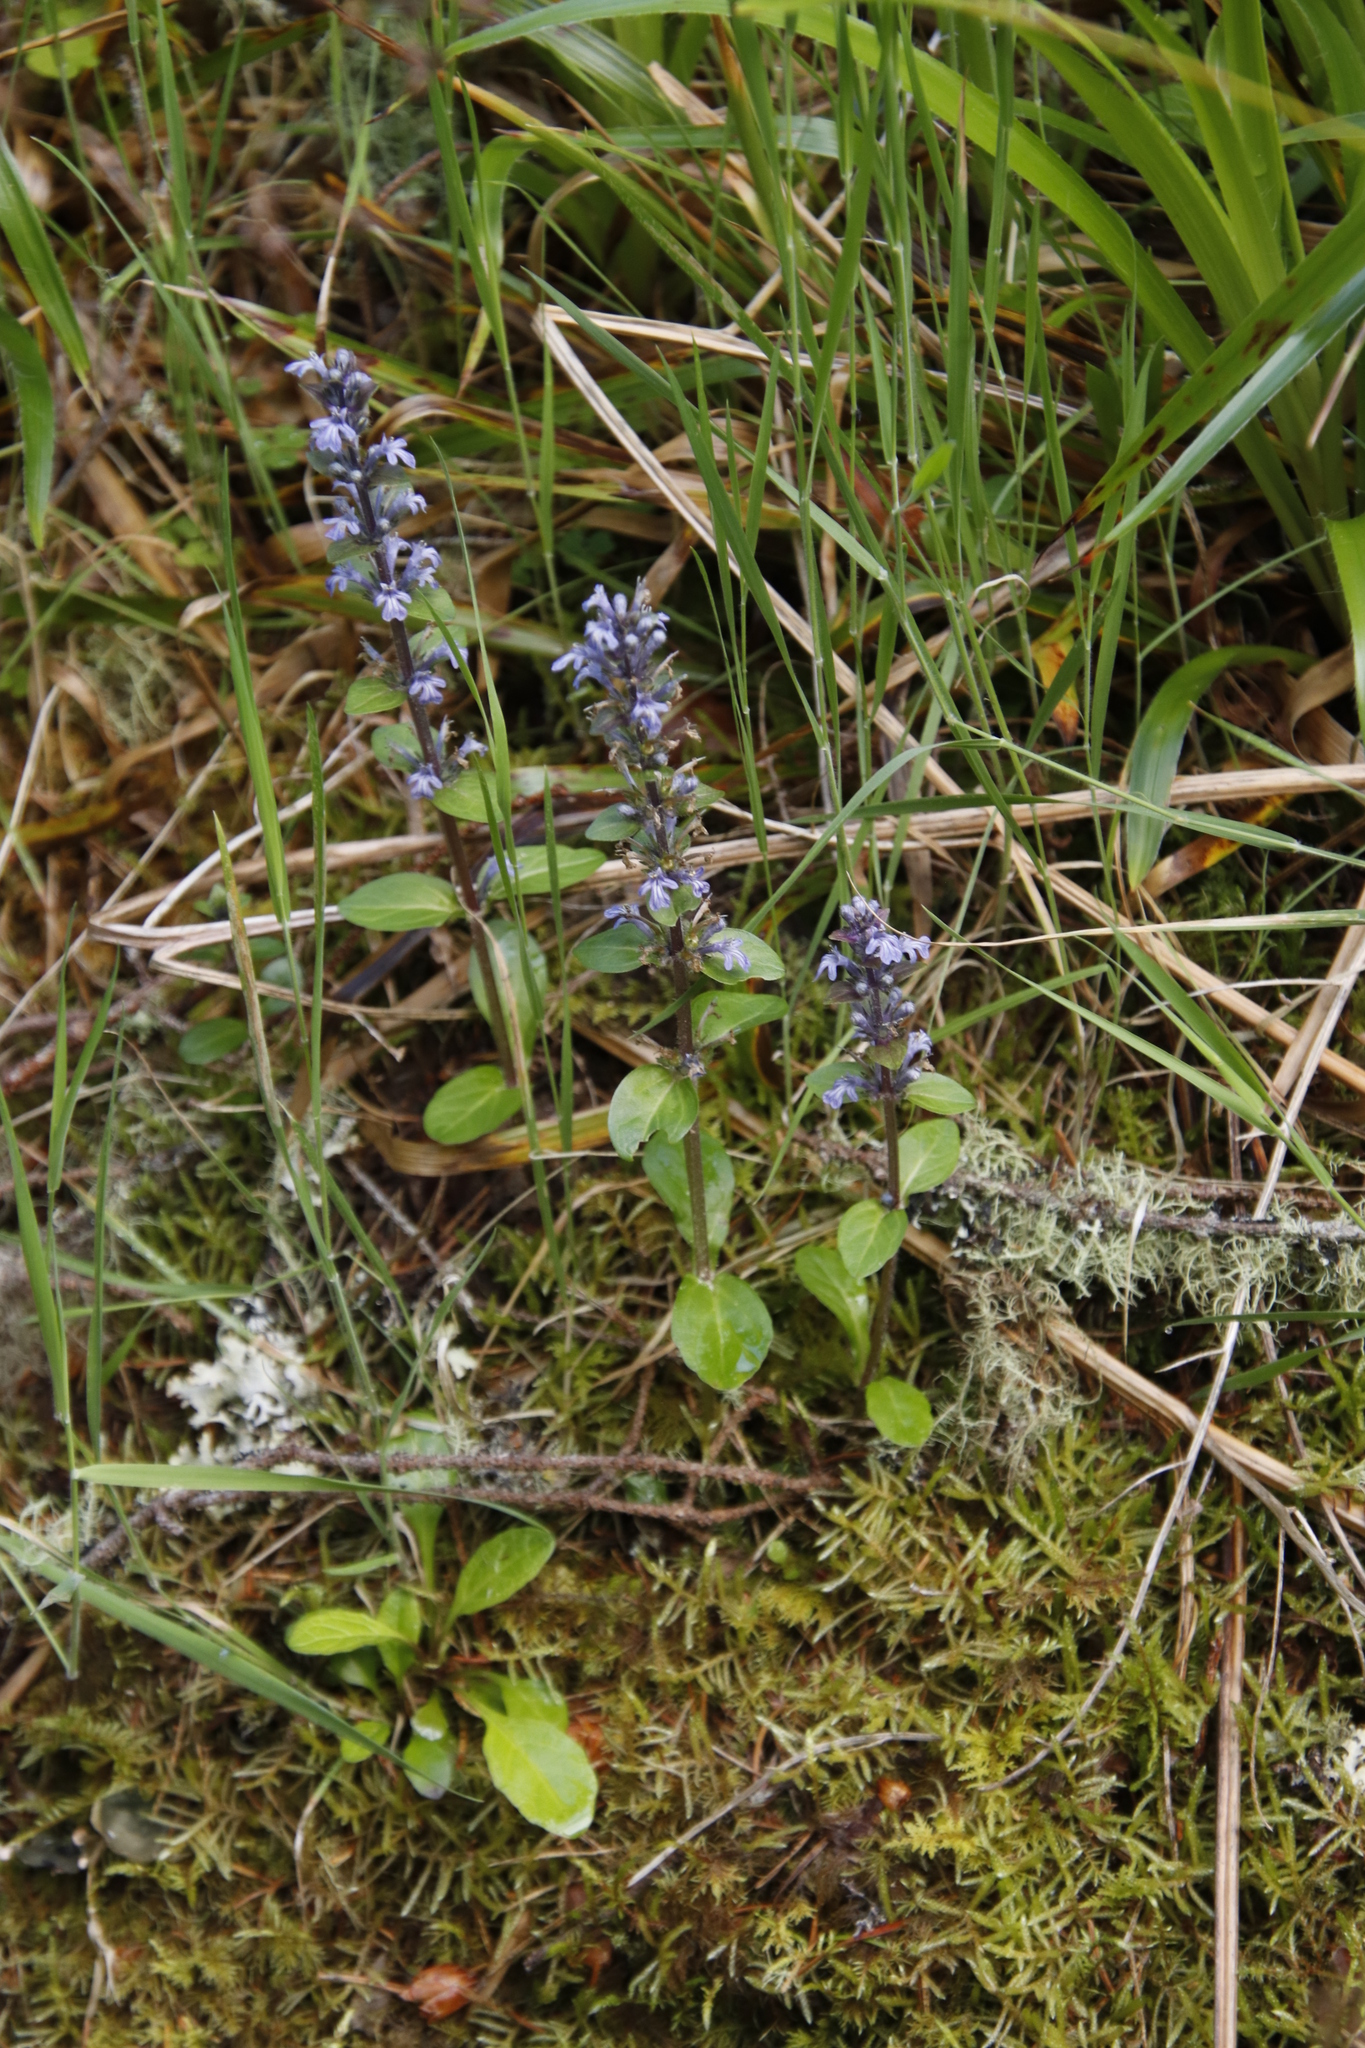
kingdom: Plantae
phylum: Tracheophyta
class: Magnoliopsida
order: Lamiales
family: Lamiaceae
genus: Ajuga
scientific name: Ajuga reptans
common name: Bugle
